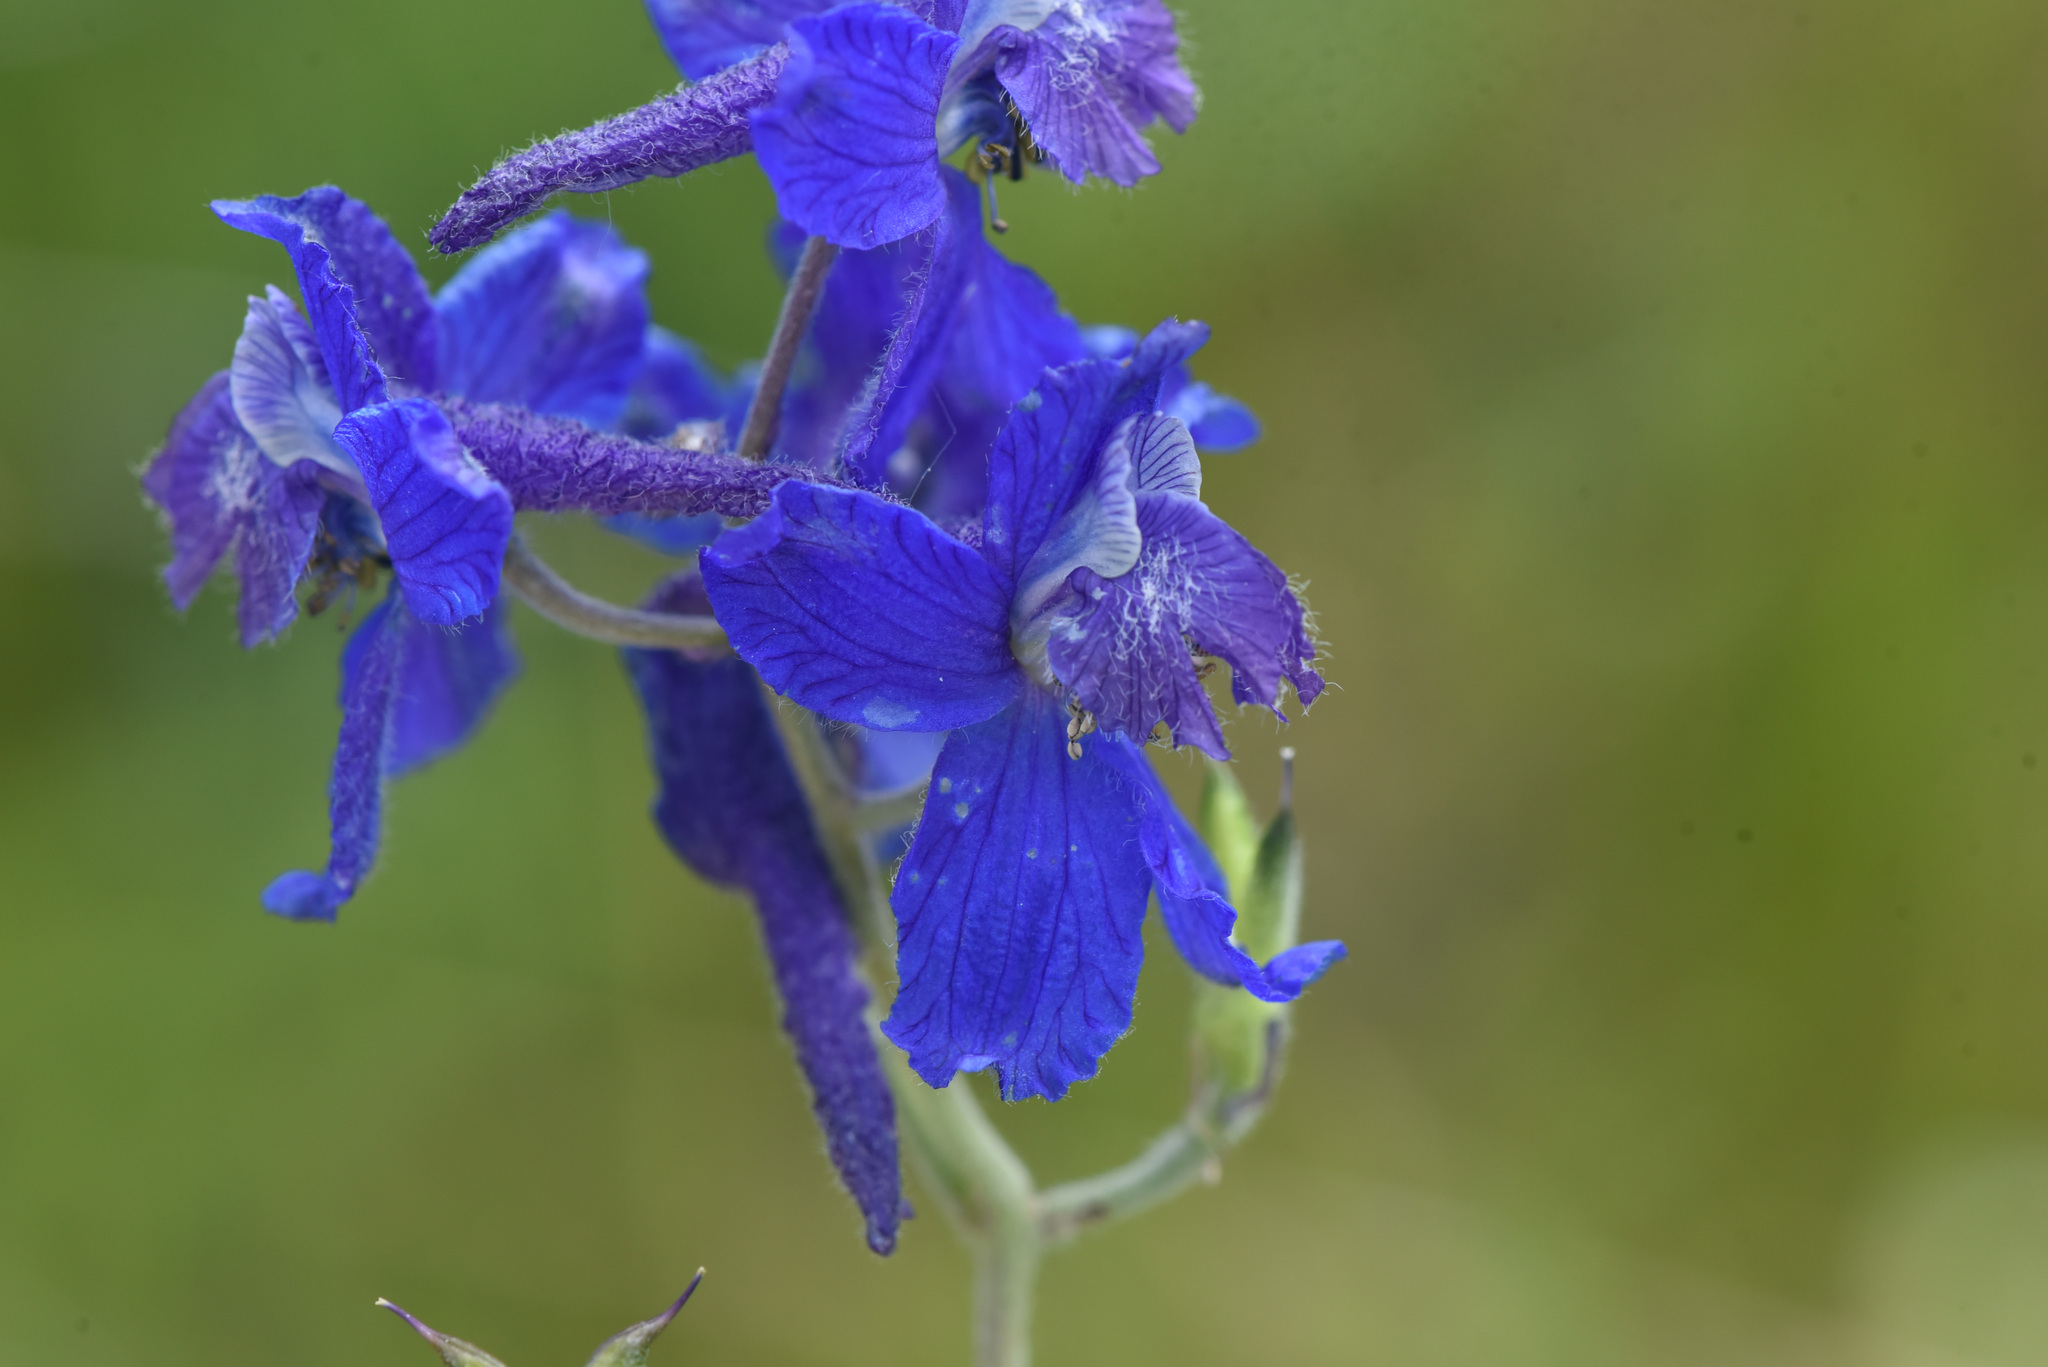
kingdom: Plantae
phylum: Tracheophyta
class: Magnoliopsida
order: Ranunculales
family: Ranunculaceae
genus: Delphinium
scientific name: Delphinium nuttallianum
